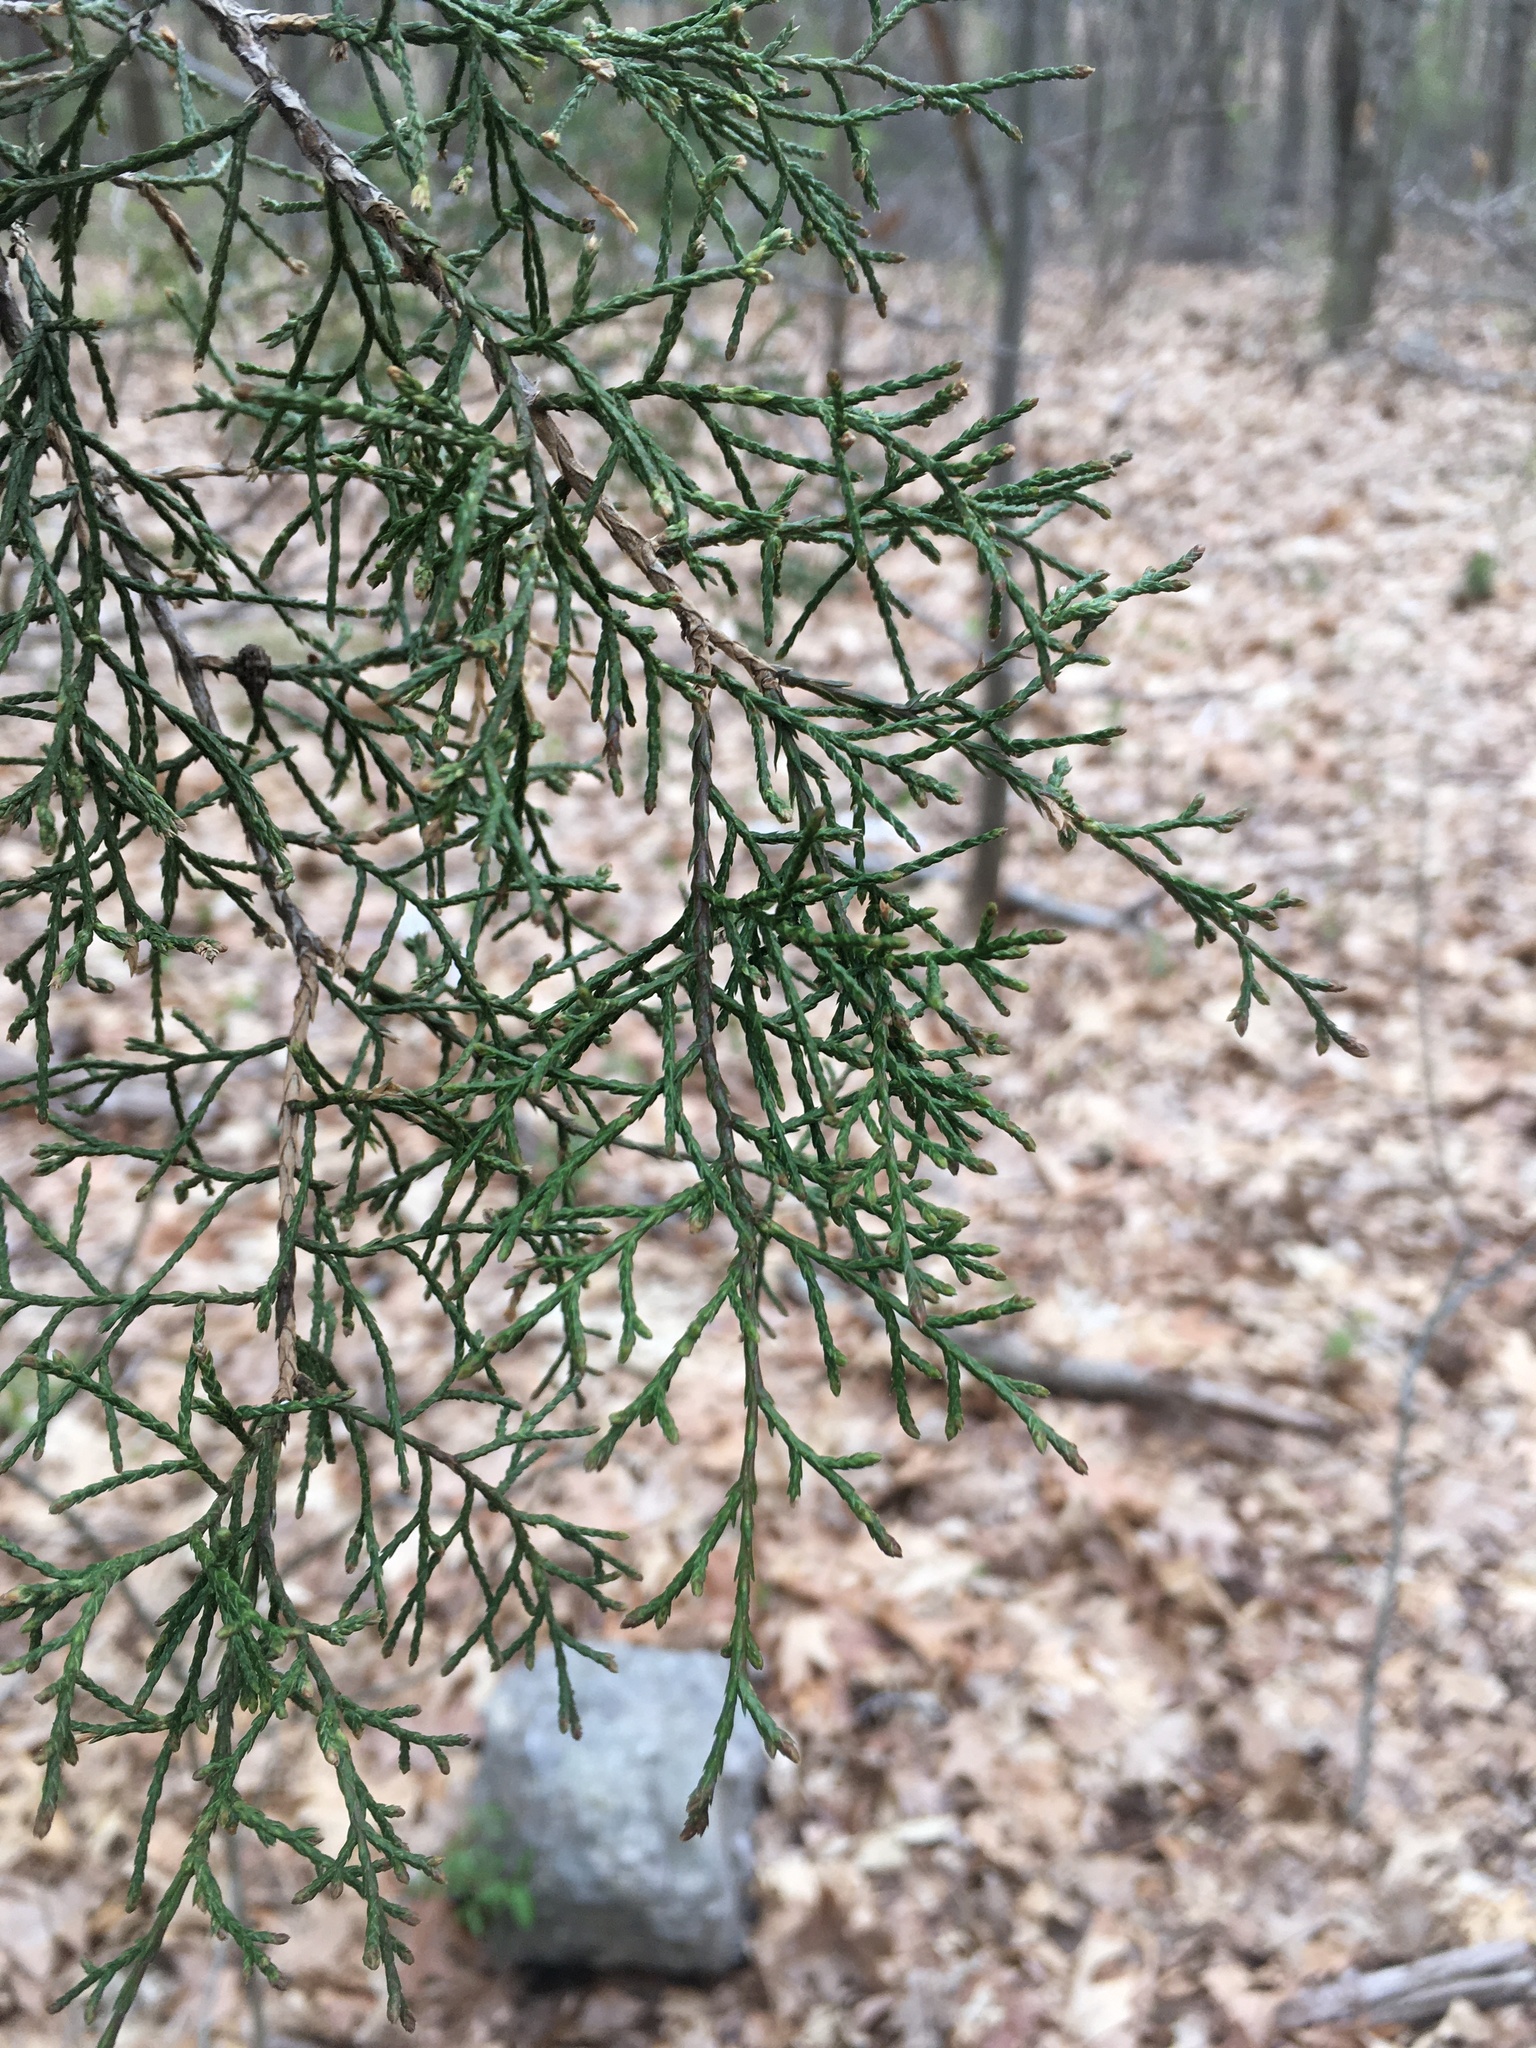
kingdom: Plantae
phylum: Tracheophyta
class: Pinopsida
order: Pinales
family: Cupressaceae
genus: Juniperus
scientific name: Juniperus virginiana
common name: Red juniper
